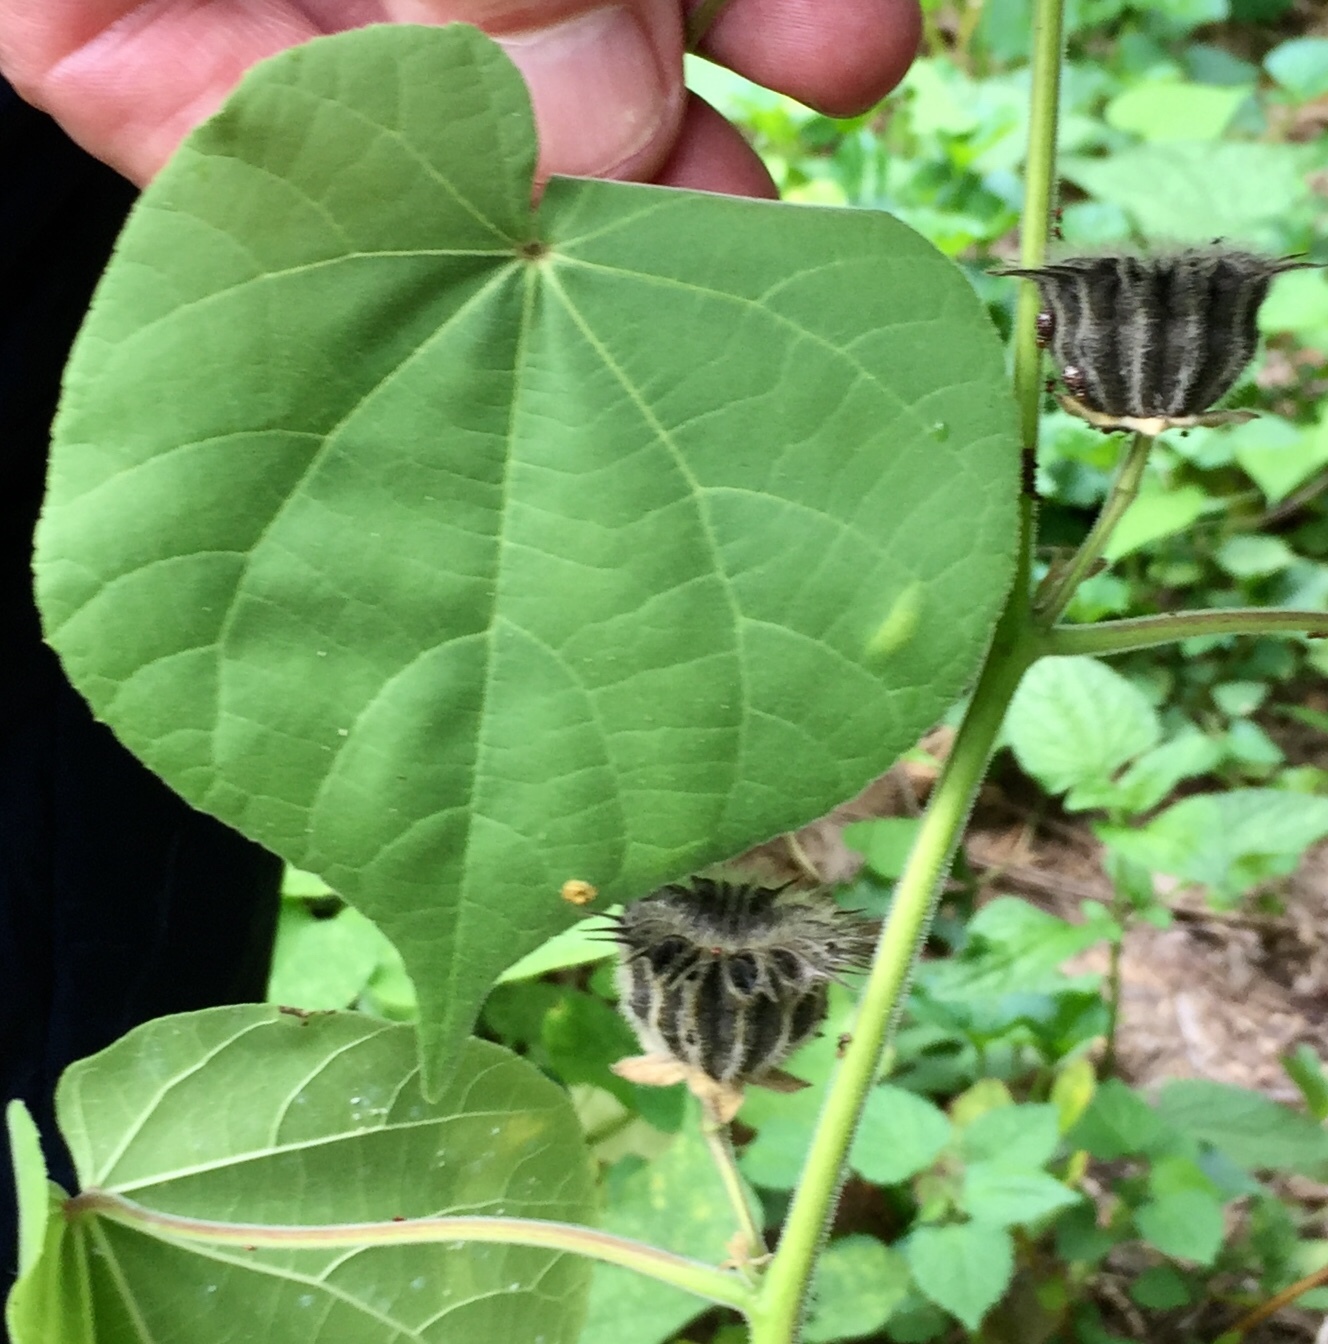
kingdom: Plantae
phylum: Tracheophyta
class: Magnoliopsida
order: Malvales
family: Malvaceae
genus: Abutilon
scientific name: Abutilon theophrasti
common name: Velvetleaf
